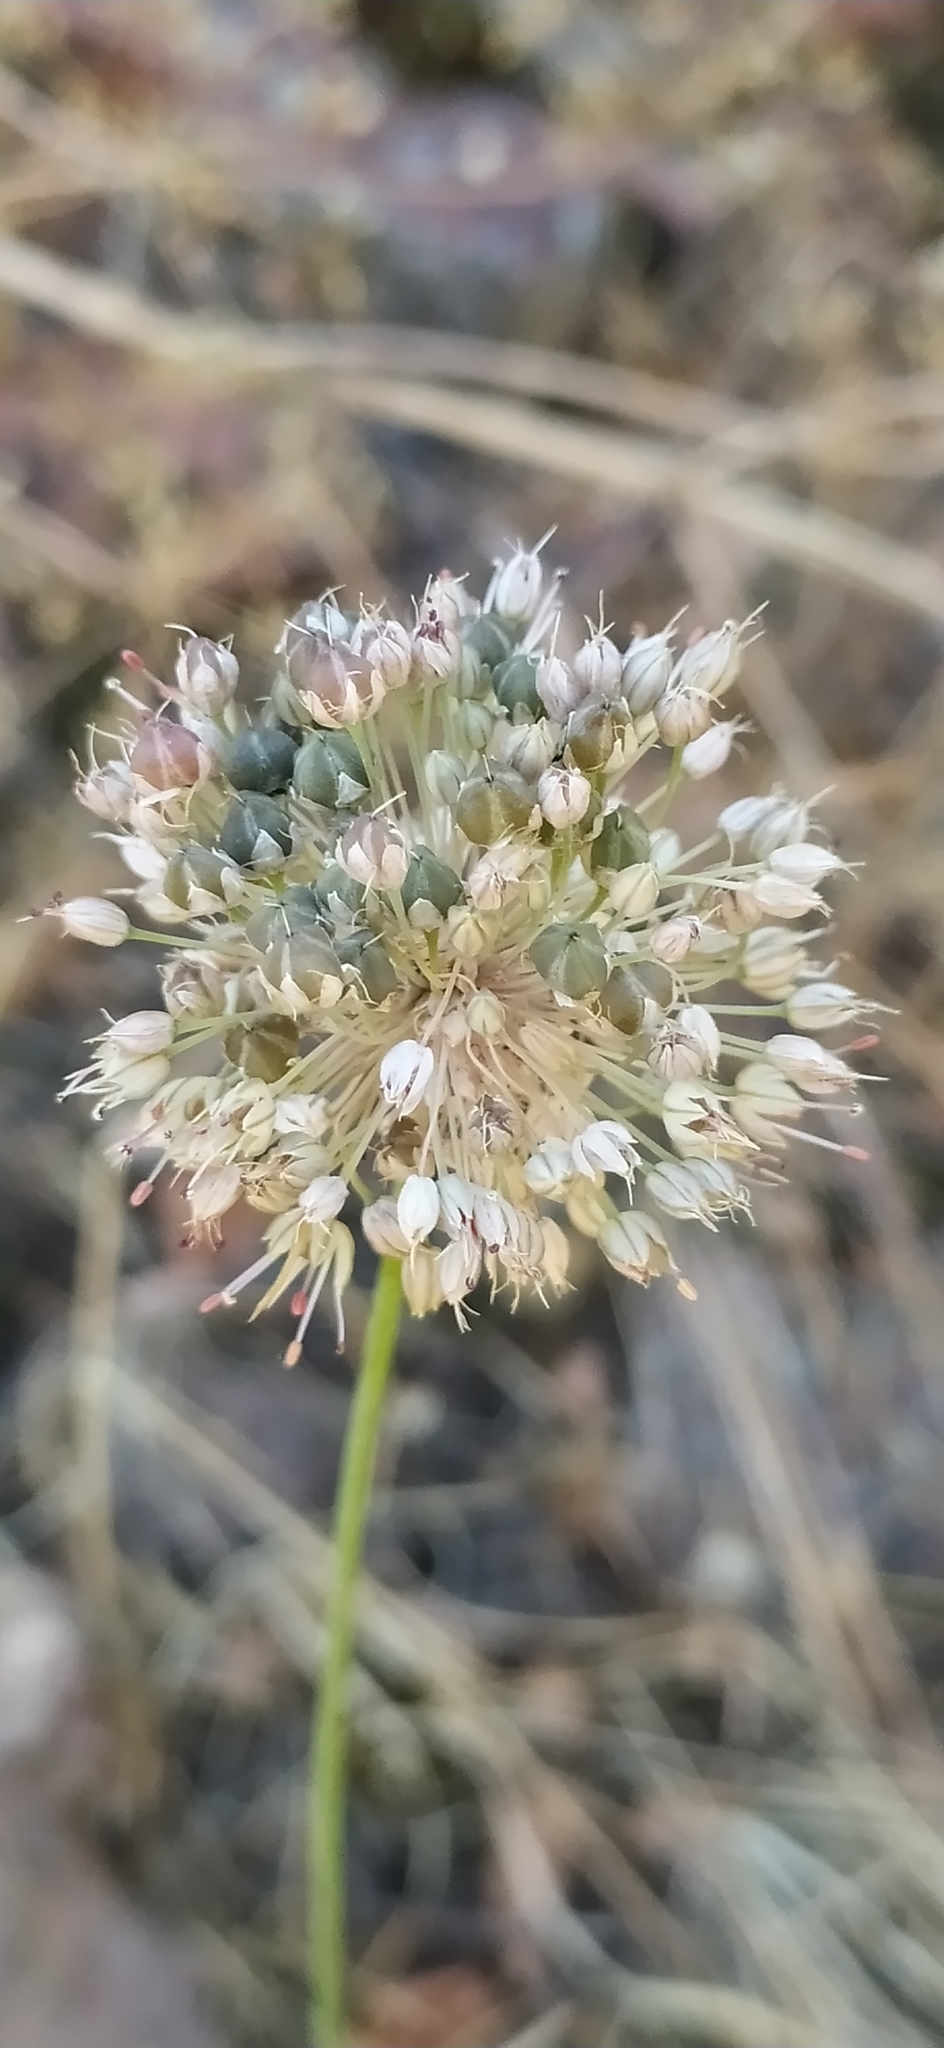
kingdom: Plantae
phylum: Tracheophyta
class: Liliopsida
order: Asparagales
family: Amaryllidaceae
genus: Allium
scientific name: Allium talassicum
